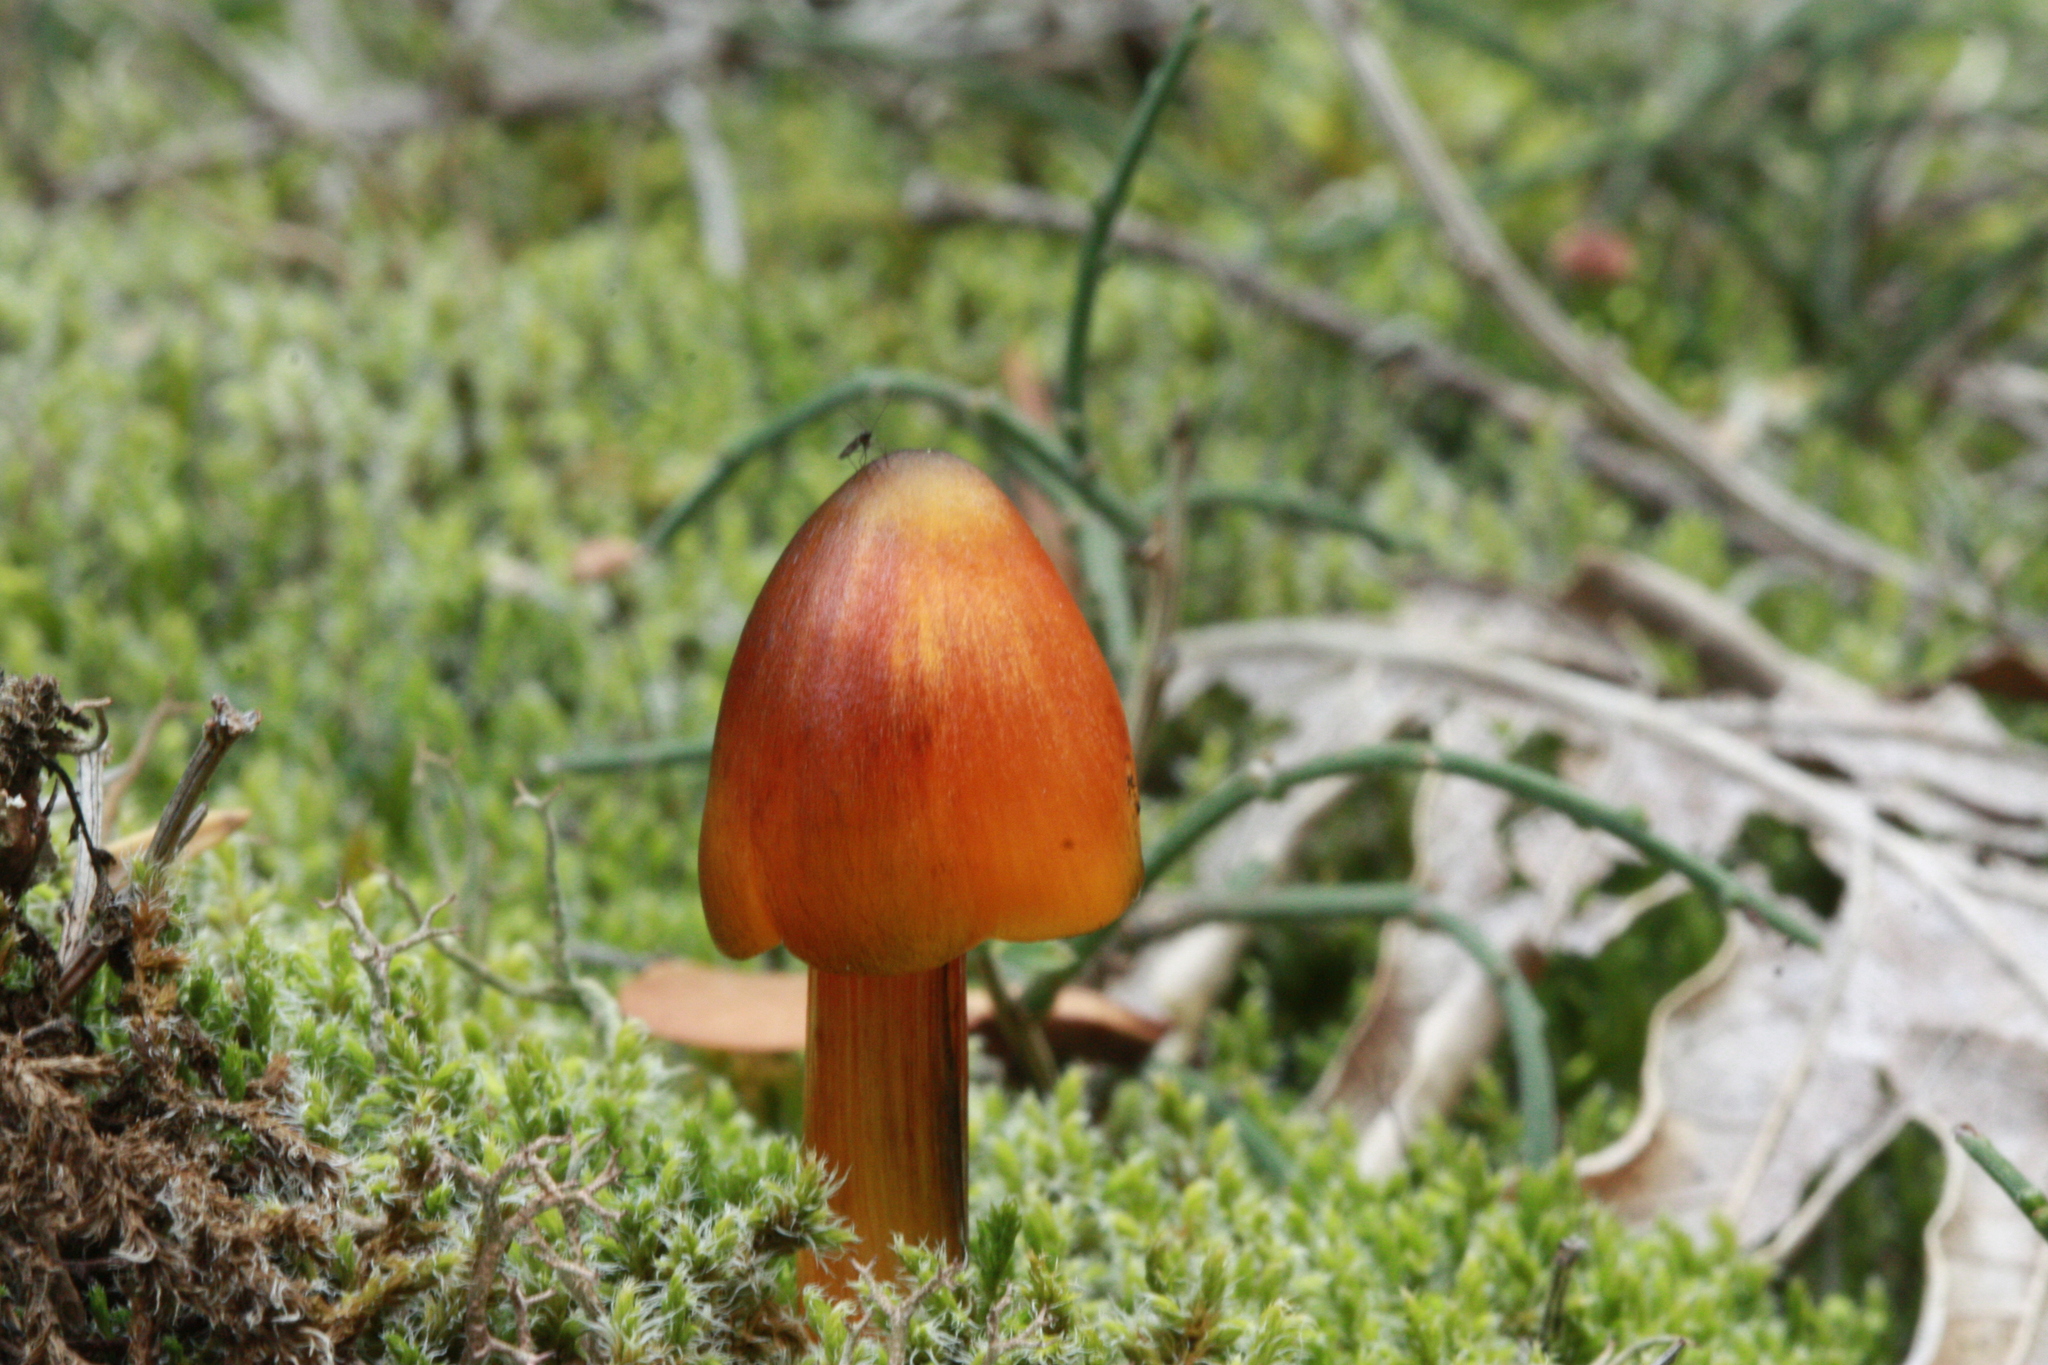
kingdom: Fungi
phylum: Basidiomycota
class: Agaricomycetes
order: Agaricales
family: Hygrophoraceae
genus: Hygrocybe
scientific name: Hygrocybe conica
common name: Blackening wax-cap
